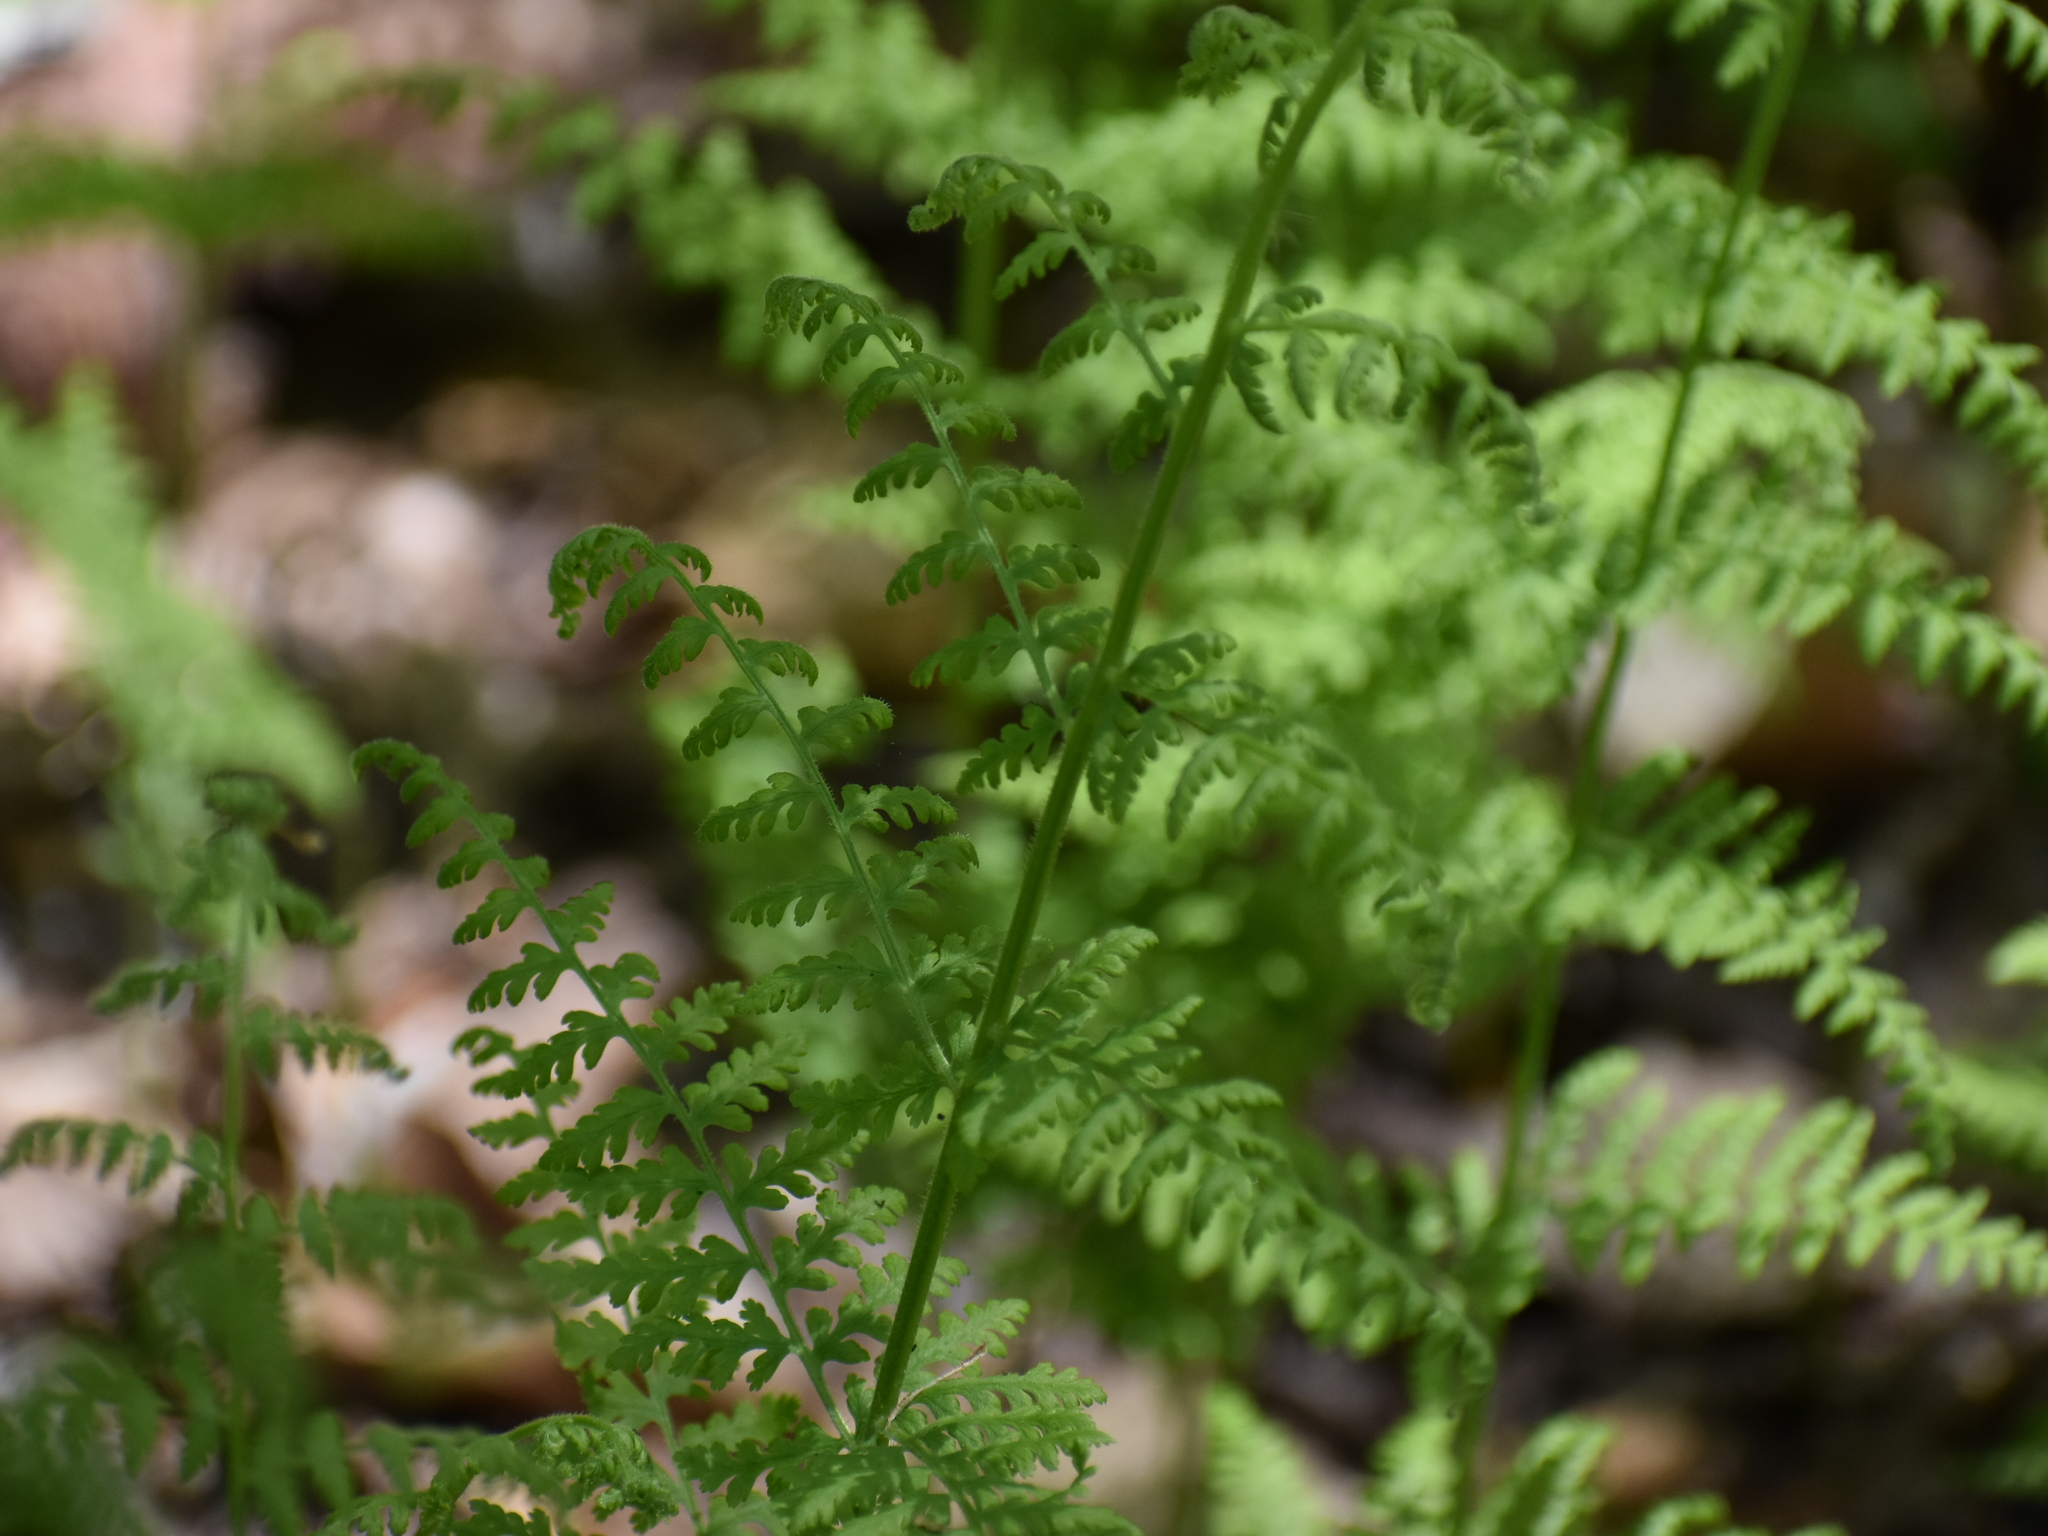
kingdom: Plantae
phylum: Tracheophyta
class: Polypodiopsida
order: Polypodiales
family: Dennstaedtiaceae
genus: Sitobolium
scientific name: Sitobolium punctilobum
